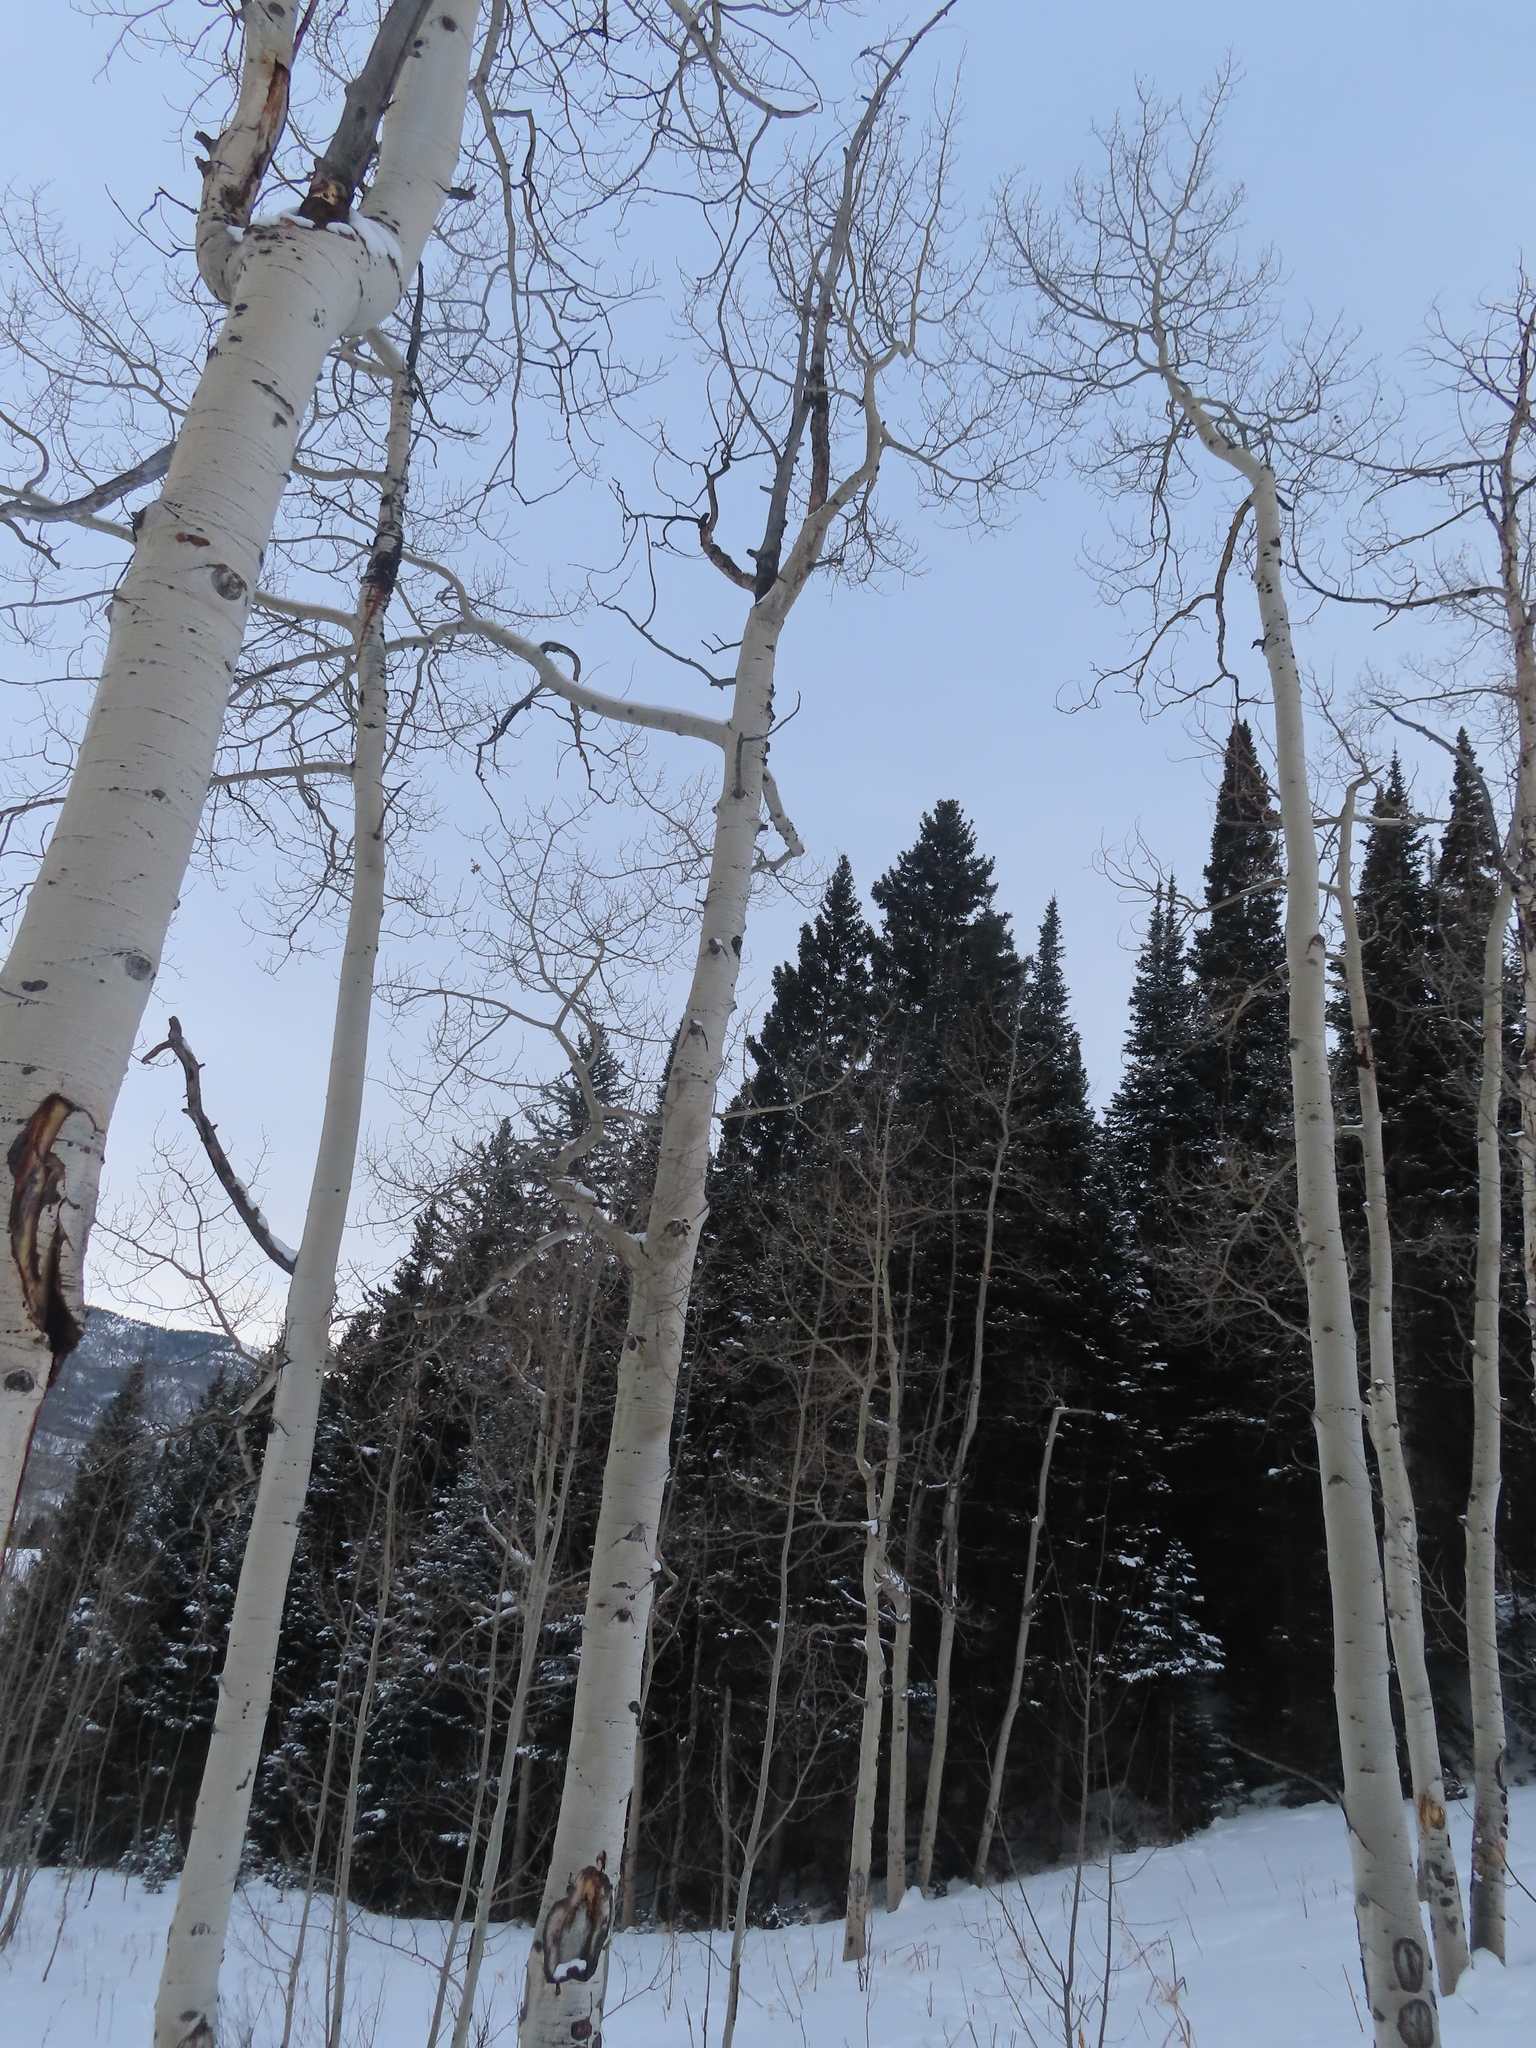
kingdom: Plantae
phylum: Tracheophyta
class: Magnoliopsida
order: Malpighiales
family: Salicaceae
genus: Populus
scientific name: Populus tremuloides
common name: Quaking aspen
